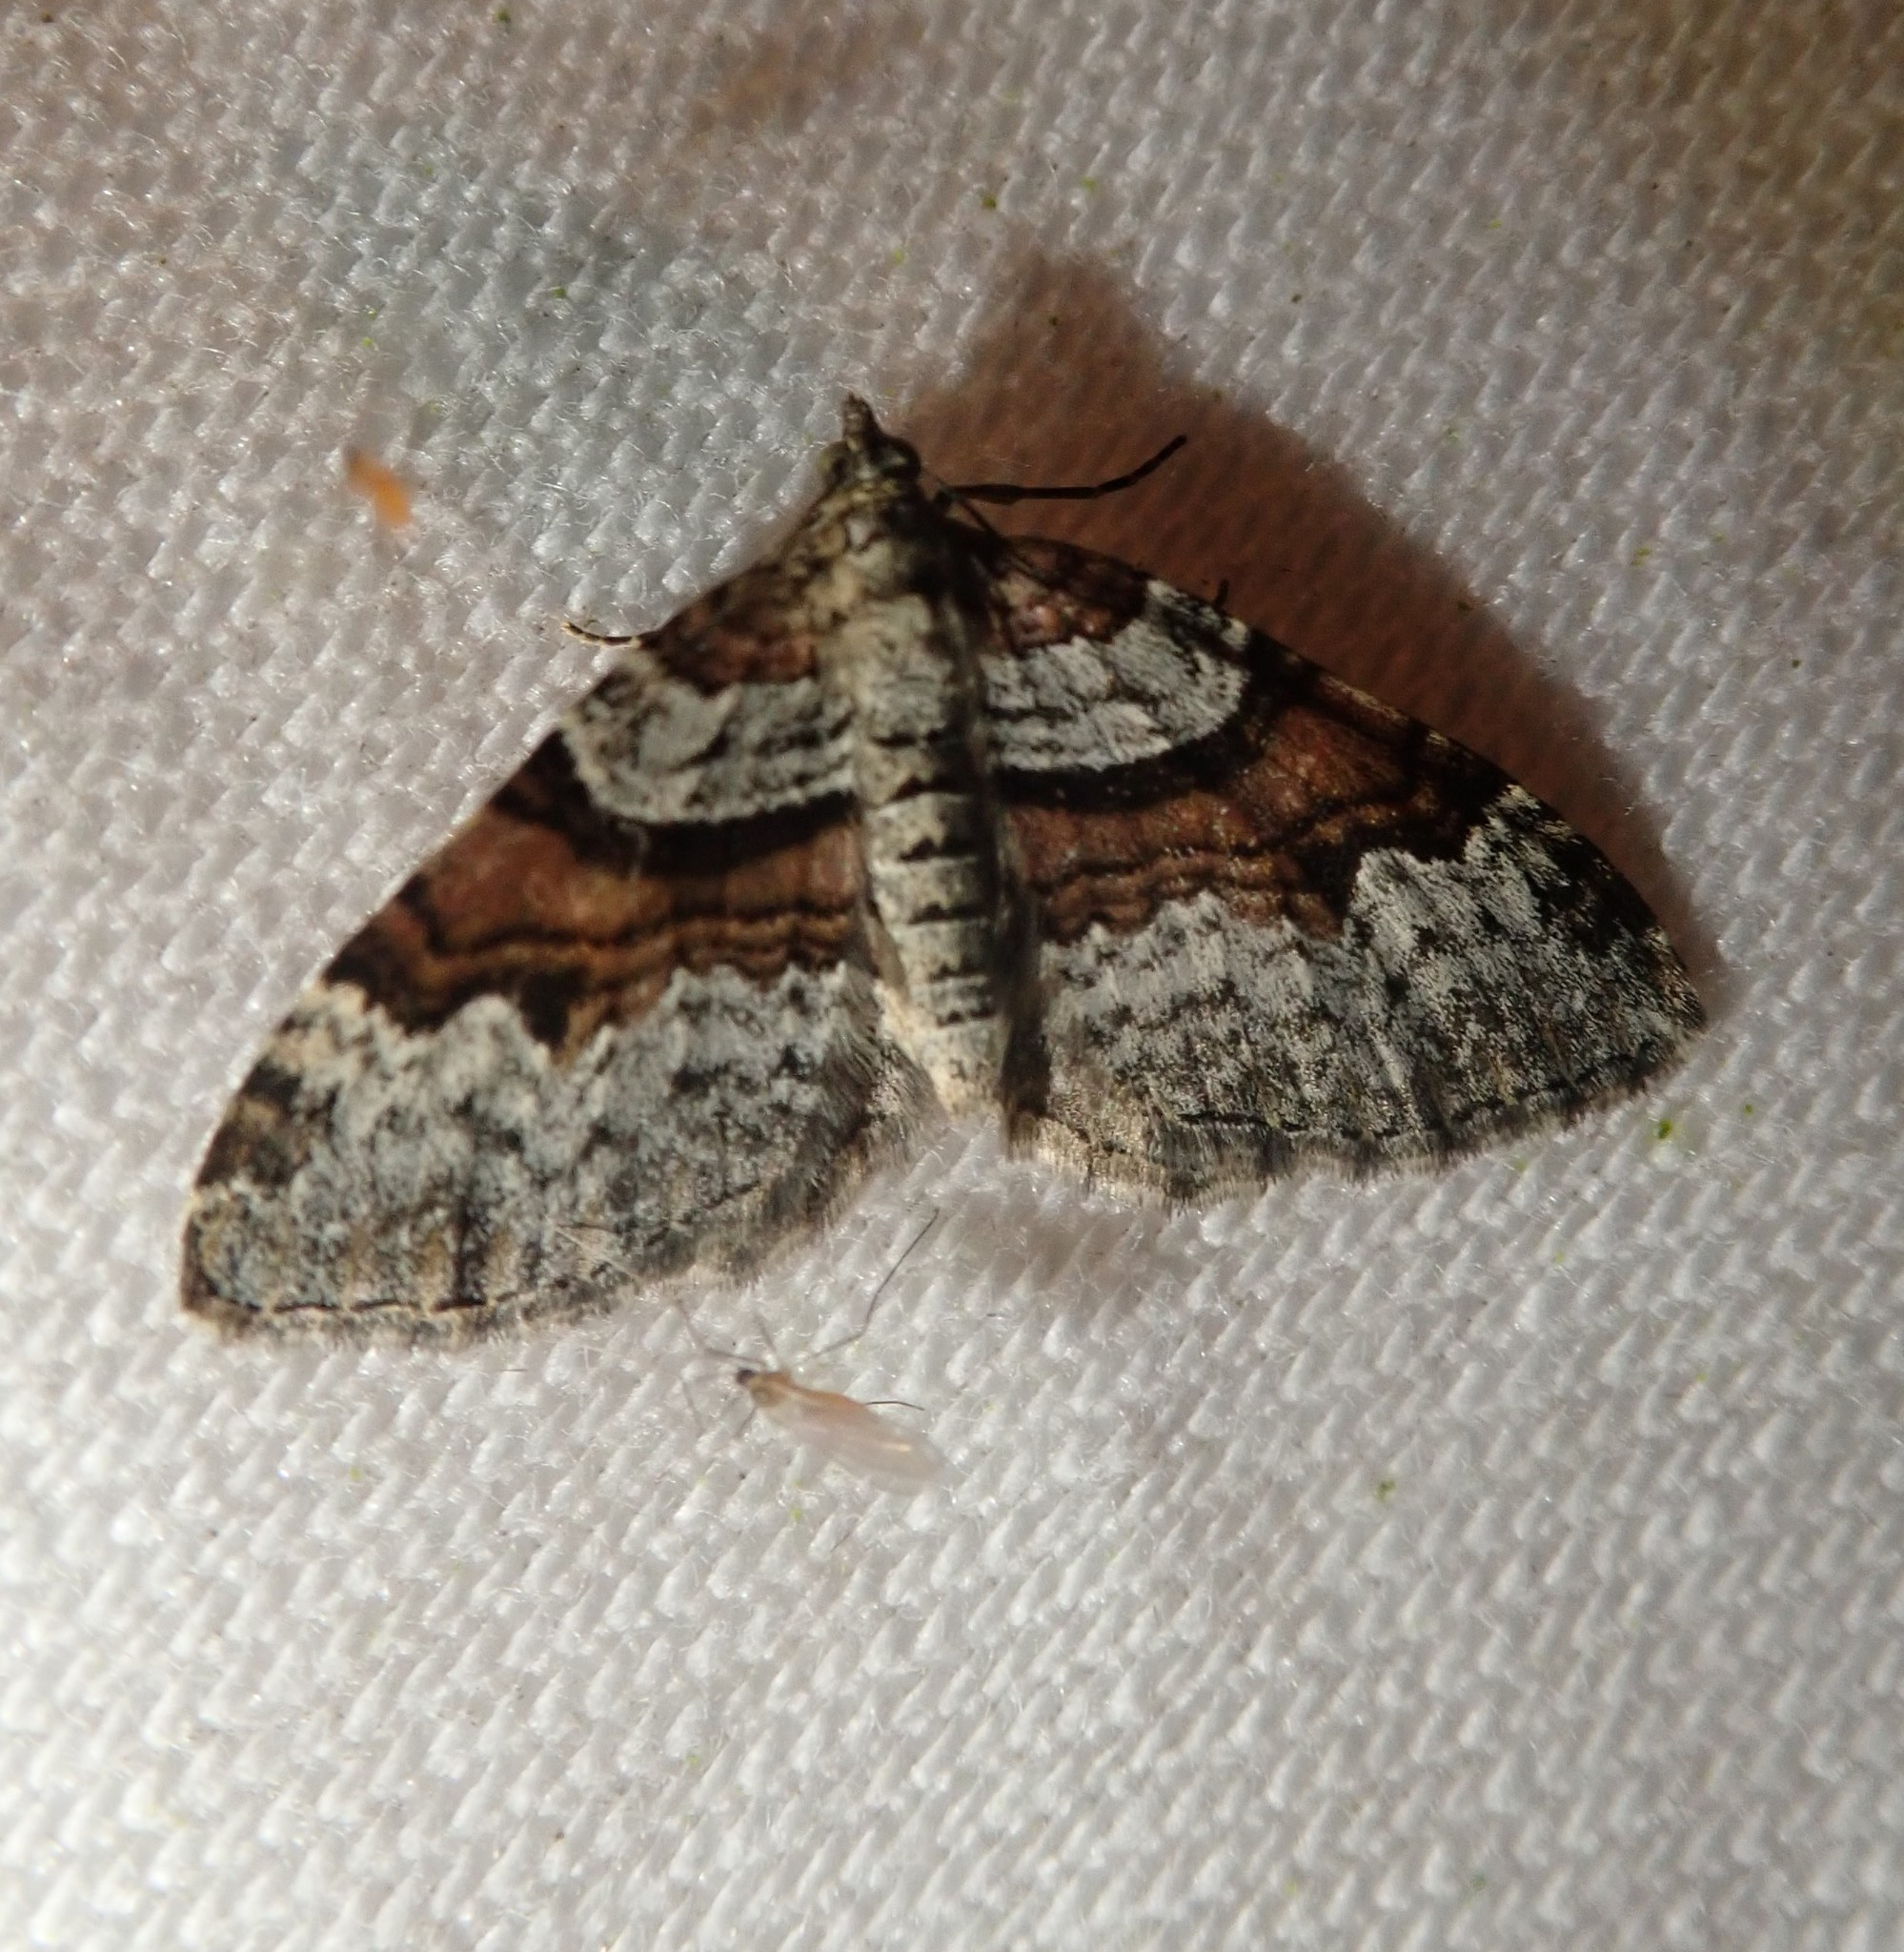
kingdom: Animalia
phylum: Arthropoda
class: Insecta
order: Lepidoptera
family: Geometridae
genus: Xanthorhoe
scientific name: Xanthorhoe designata
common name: Flame carpet
